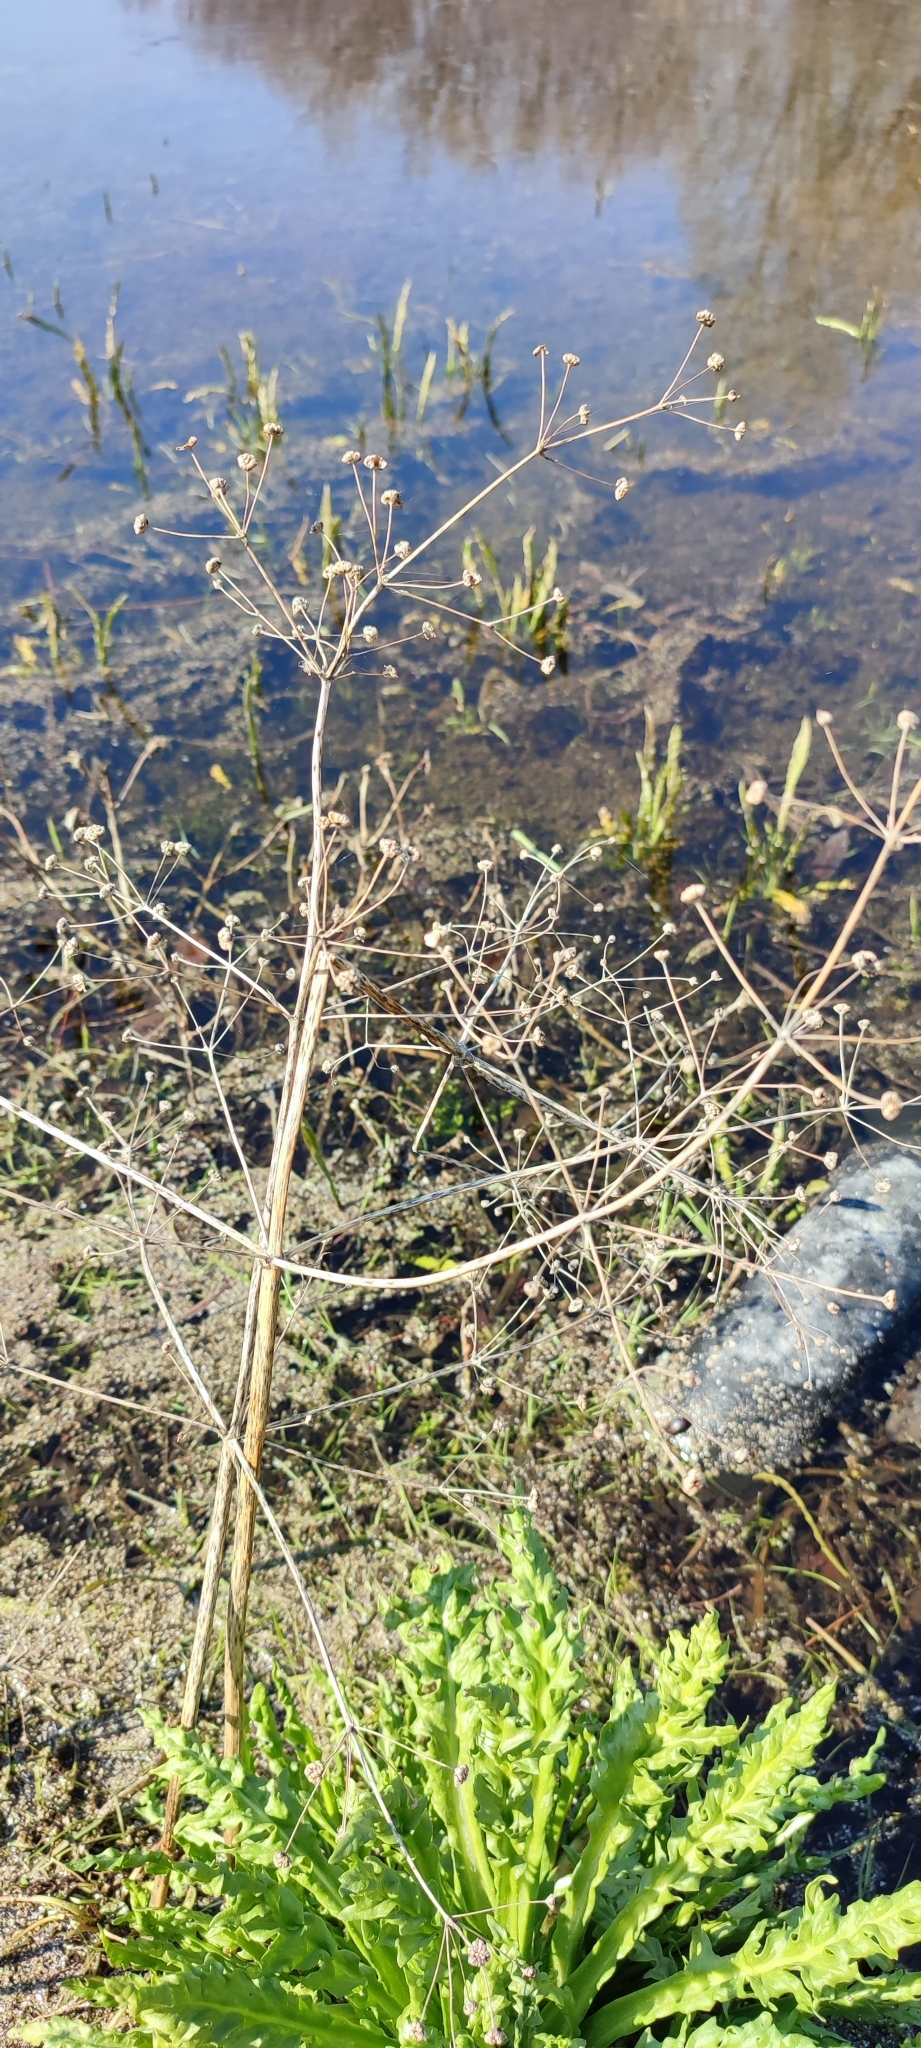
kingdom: Plantae
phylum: Tracheophyta
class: Liliopsida
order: Alismatales
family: Alismataceae
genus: Alisma
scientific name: Alisma plantago-aquatica
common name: Water-plantain
